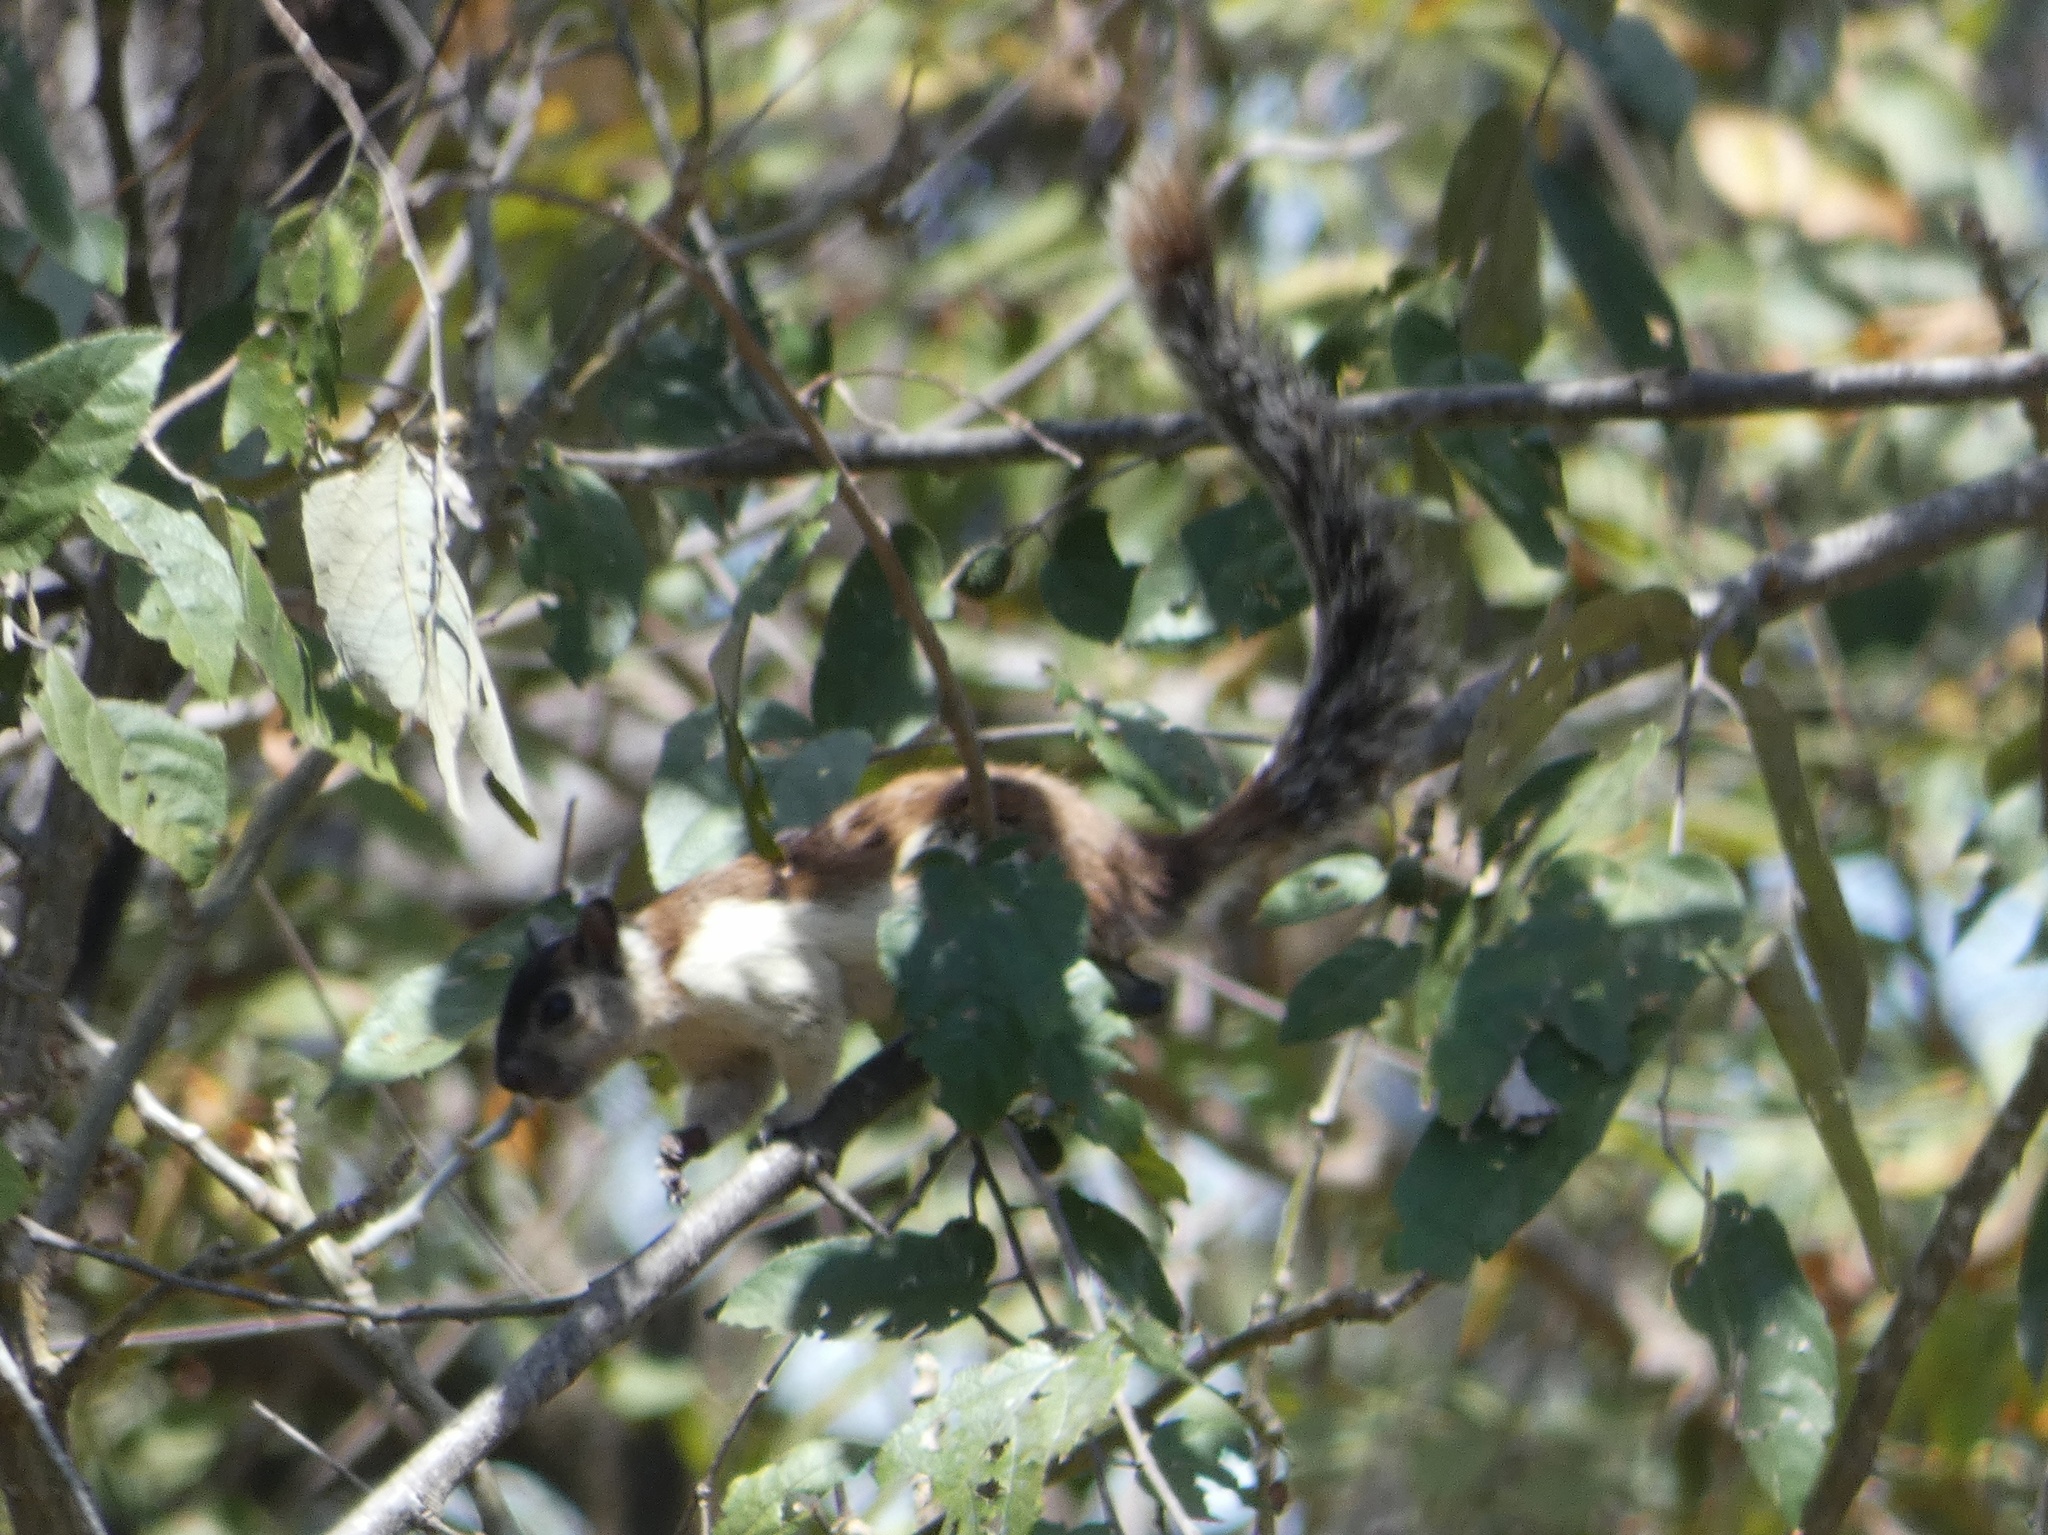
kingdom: Animalia
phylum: Chordata
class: Mammalia
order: Rodentia
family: Sciuridae
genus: Sciurus
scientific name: Sciurus variegatoides
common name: Variegated squirrel
